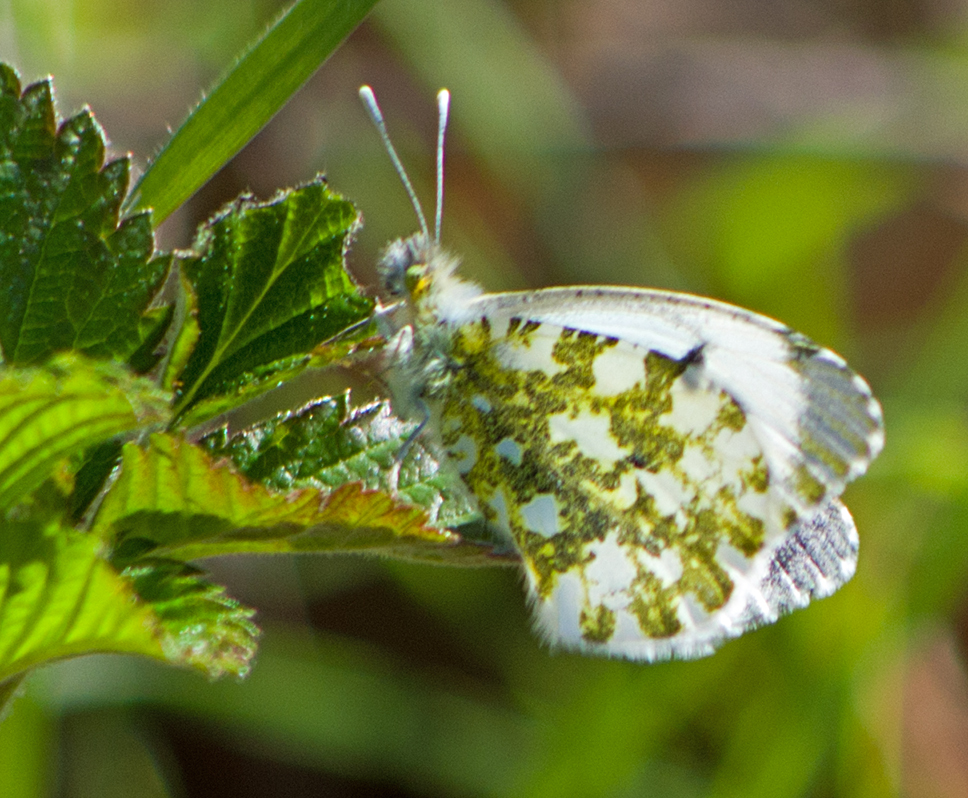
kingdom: Animalia
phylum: Arthropoda
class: Insecta
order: Lepidoptera
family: Pieridae
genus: Euchloe
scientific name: Euchloe ausonia
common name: Eastern dappled white
